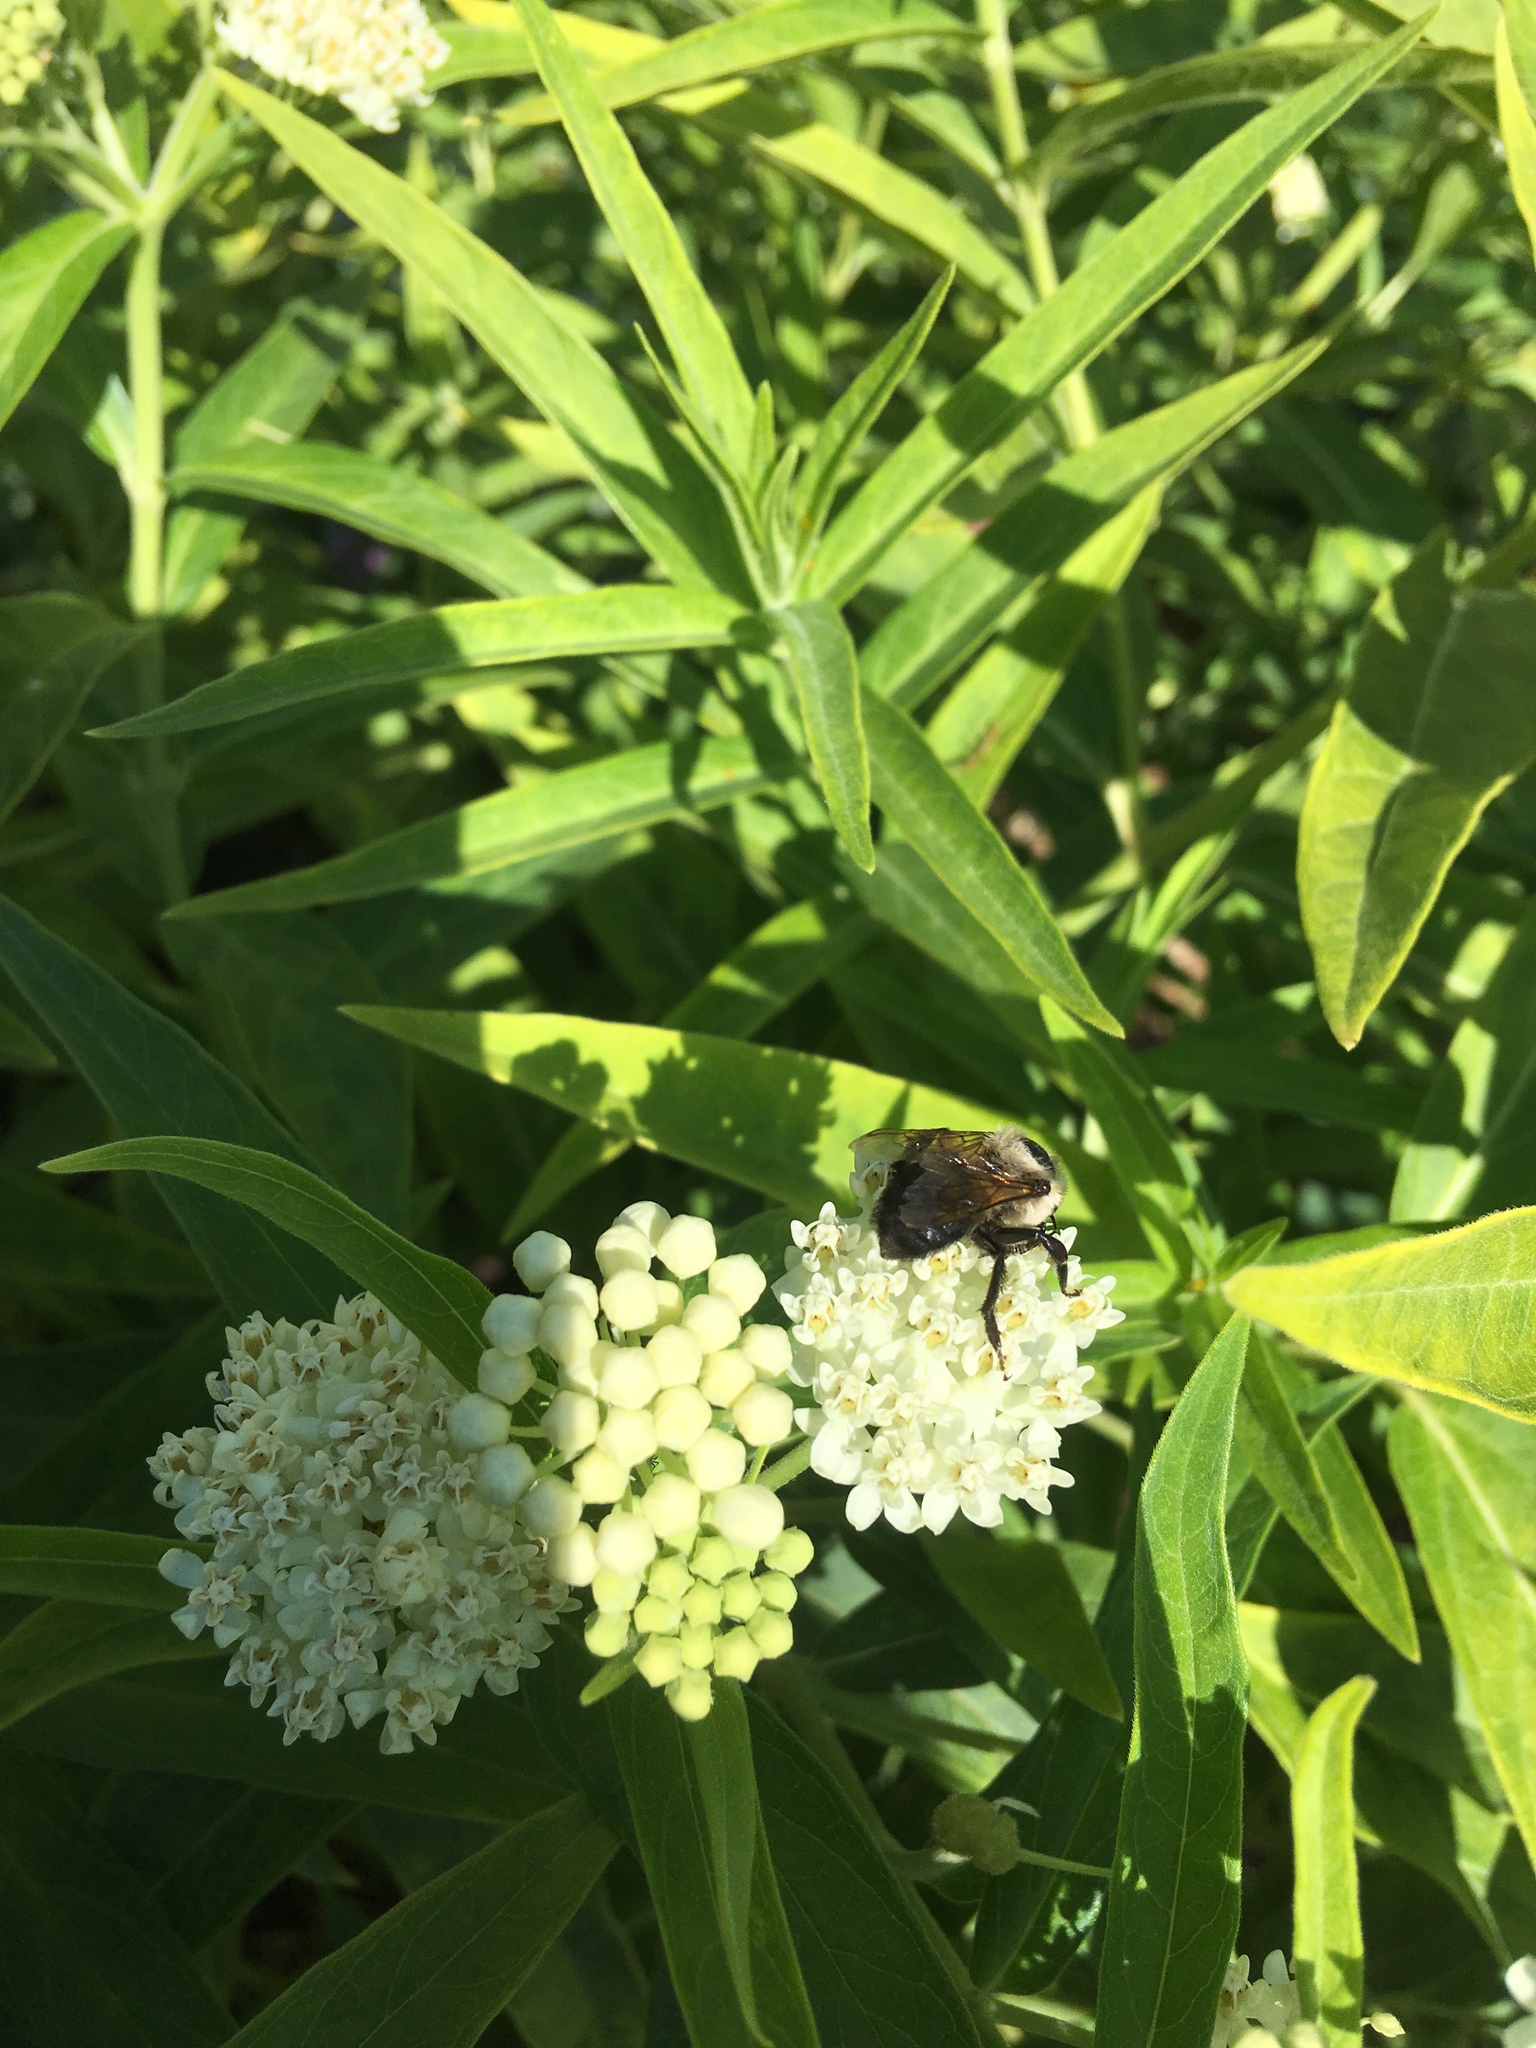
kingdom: Animalia
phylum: Arthropoda
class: Insecta
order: Hymenoptera
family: Apidae
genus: Bombus
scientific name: Bombus griseocollis
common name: Brown-belted bumble bee
